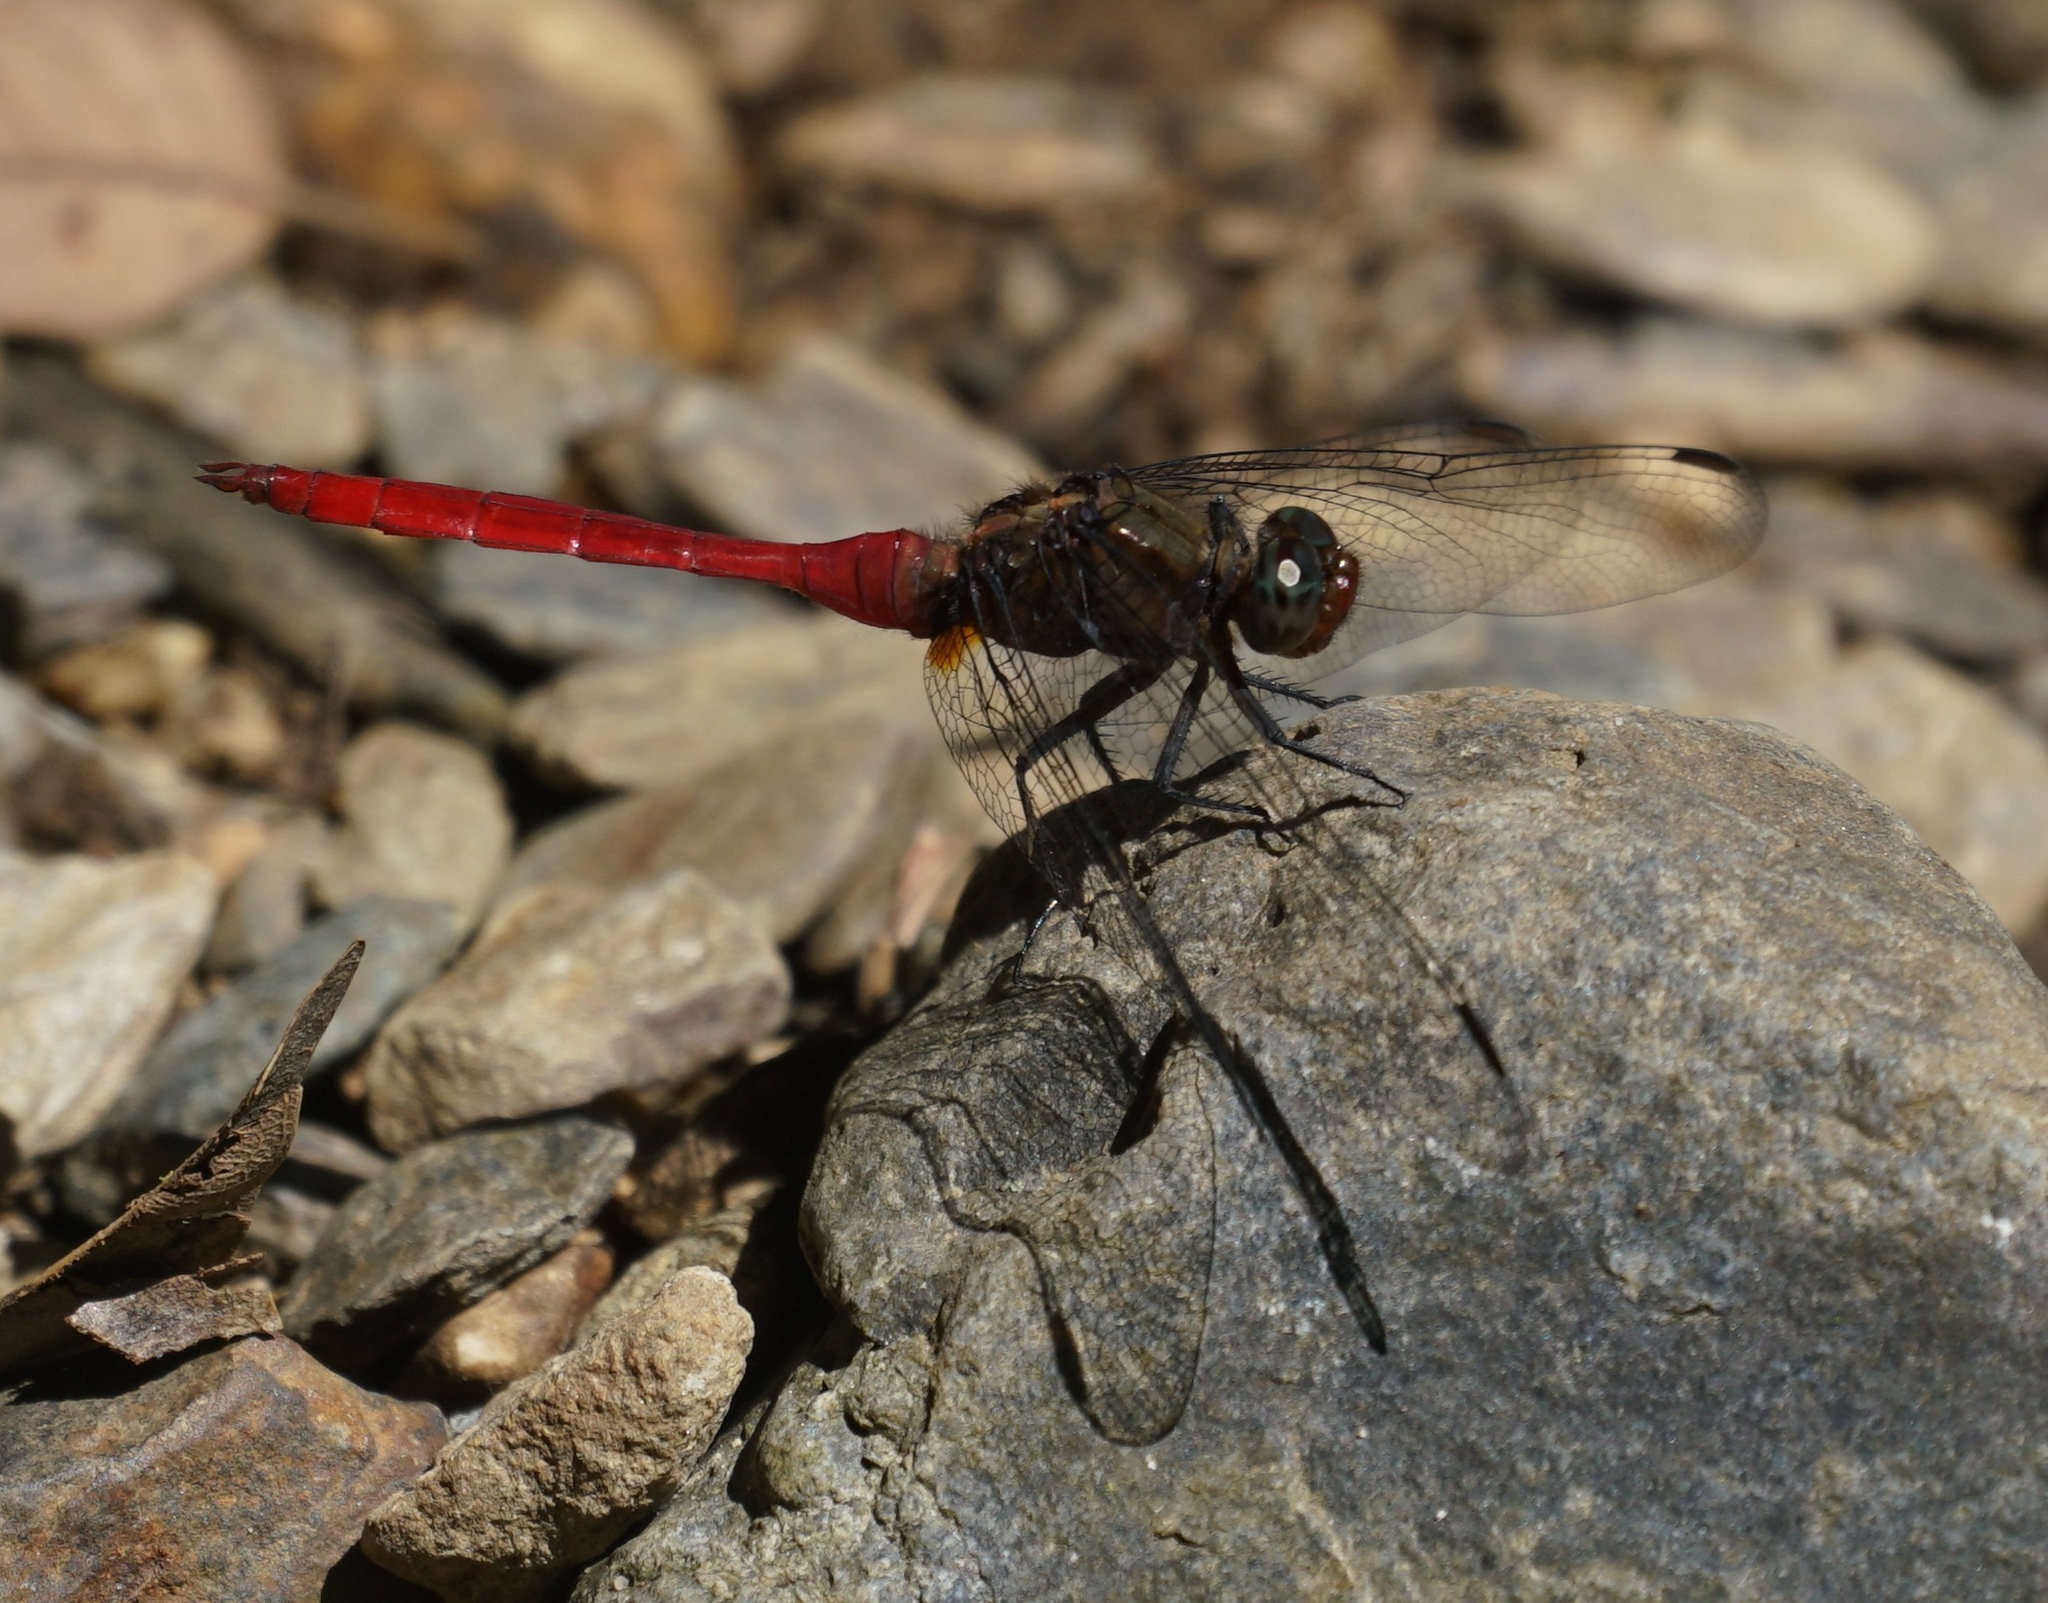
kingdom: Animalia
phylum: Arthropoda
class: Insecta
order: Odonata
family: Libellulidae
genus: Orthetrum
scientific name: Orthetrum villosovittatum
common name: Firery skimmer
